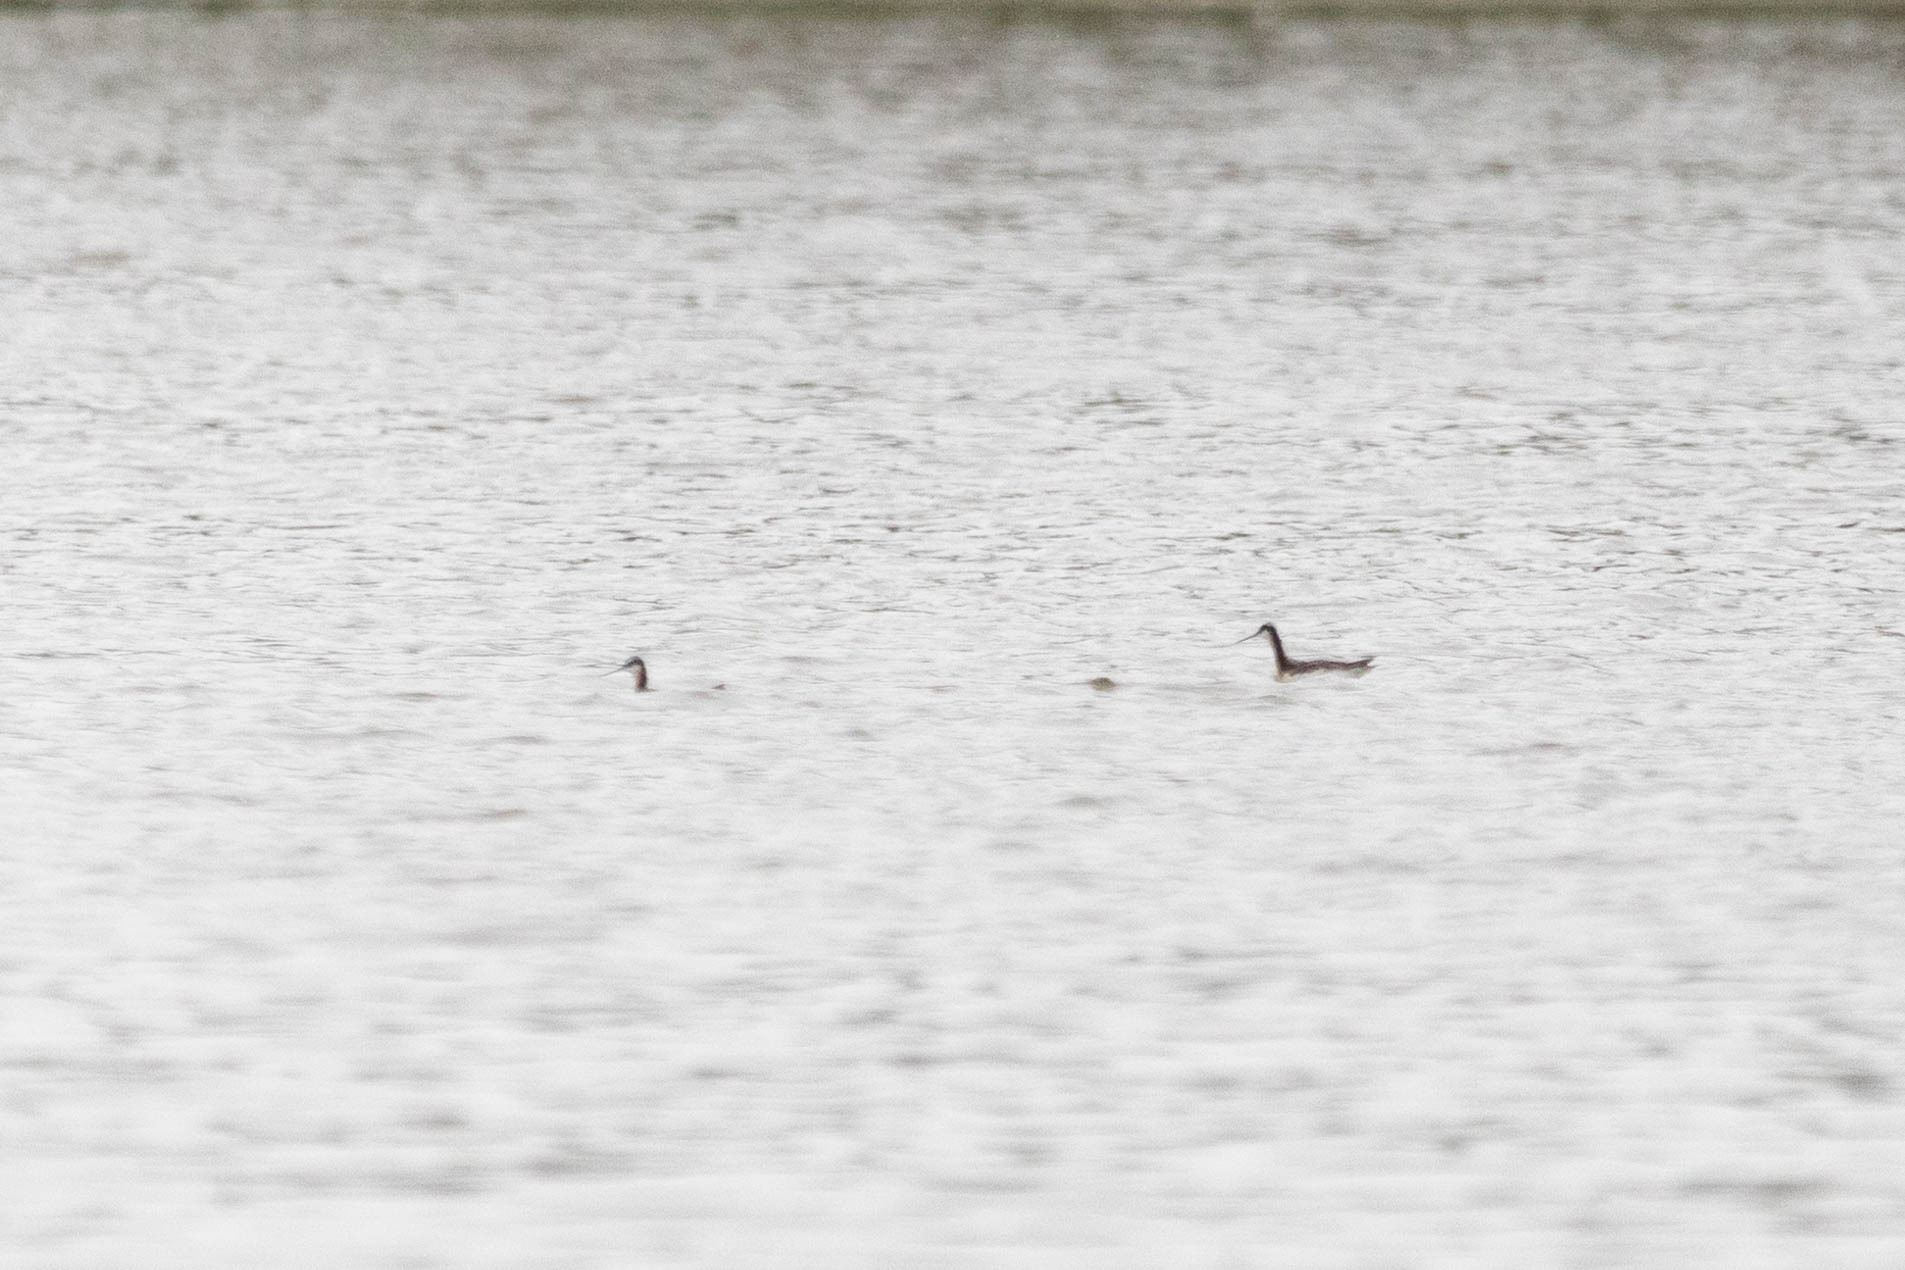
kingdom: Animalia
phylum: Chordata
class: Aves
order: Charadriiformes
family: Scolopacidae
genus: Phalaropus
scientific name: Phalaropus tricolor
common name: Wilson's phalarope
